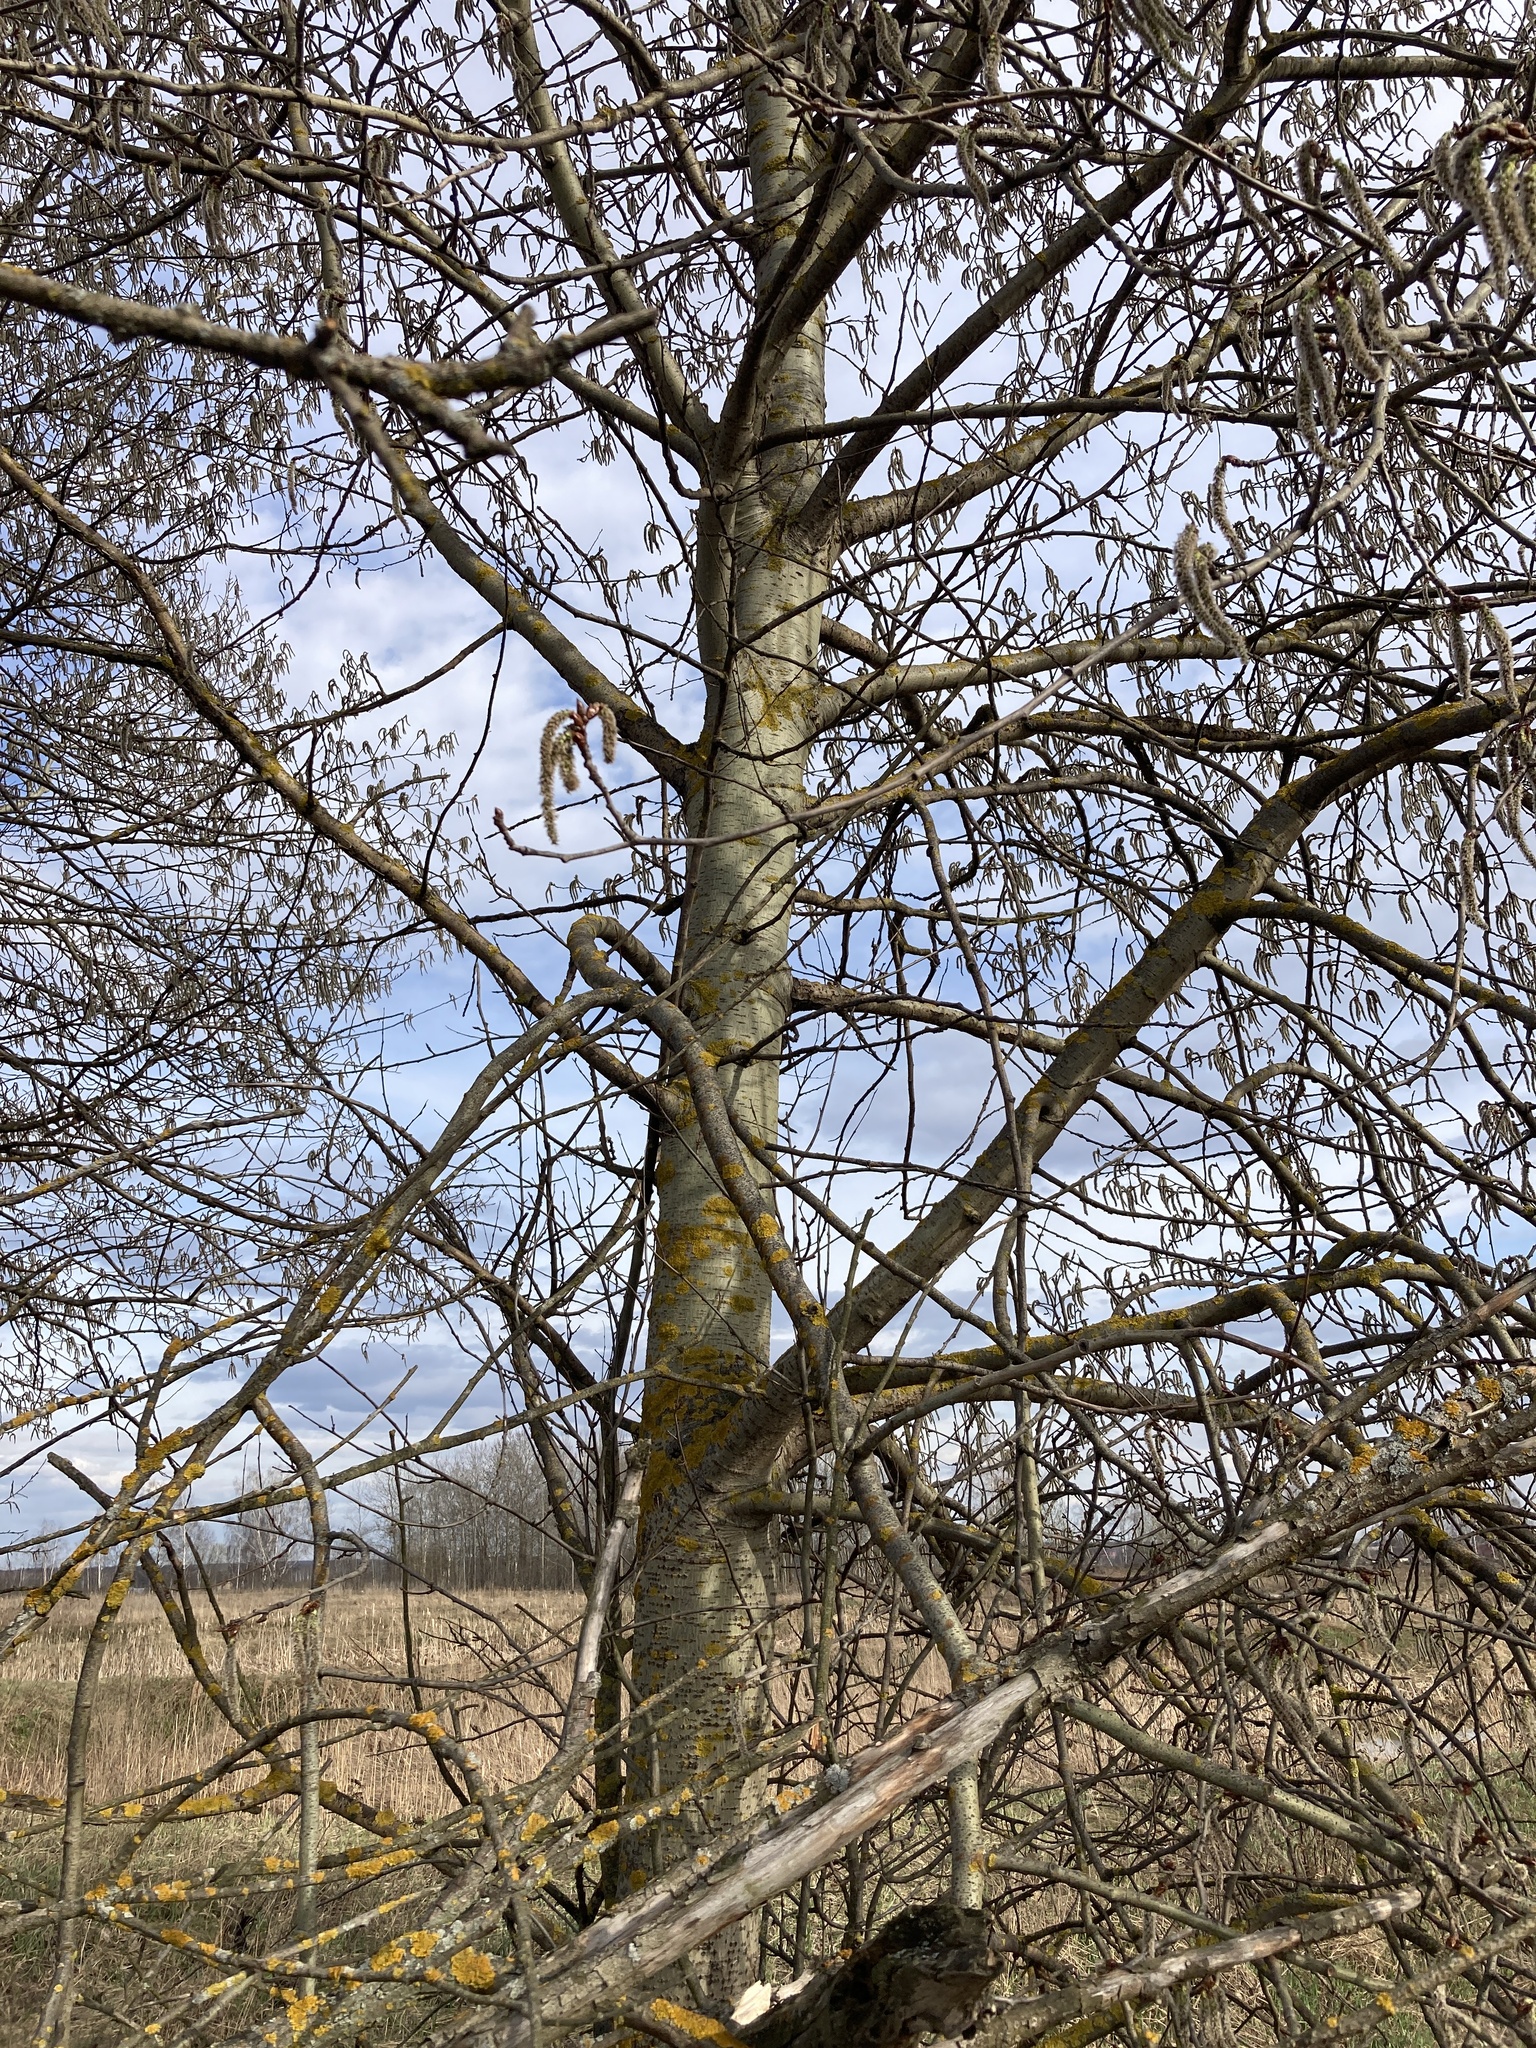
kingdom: Plantae
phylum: Tracheophyta
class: Magnoliopsida
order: Malpighiales
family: Salicaceae
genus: Populus
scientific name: Populus tremula
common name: European aspen
